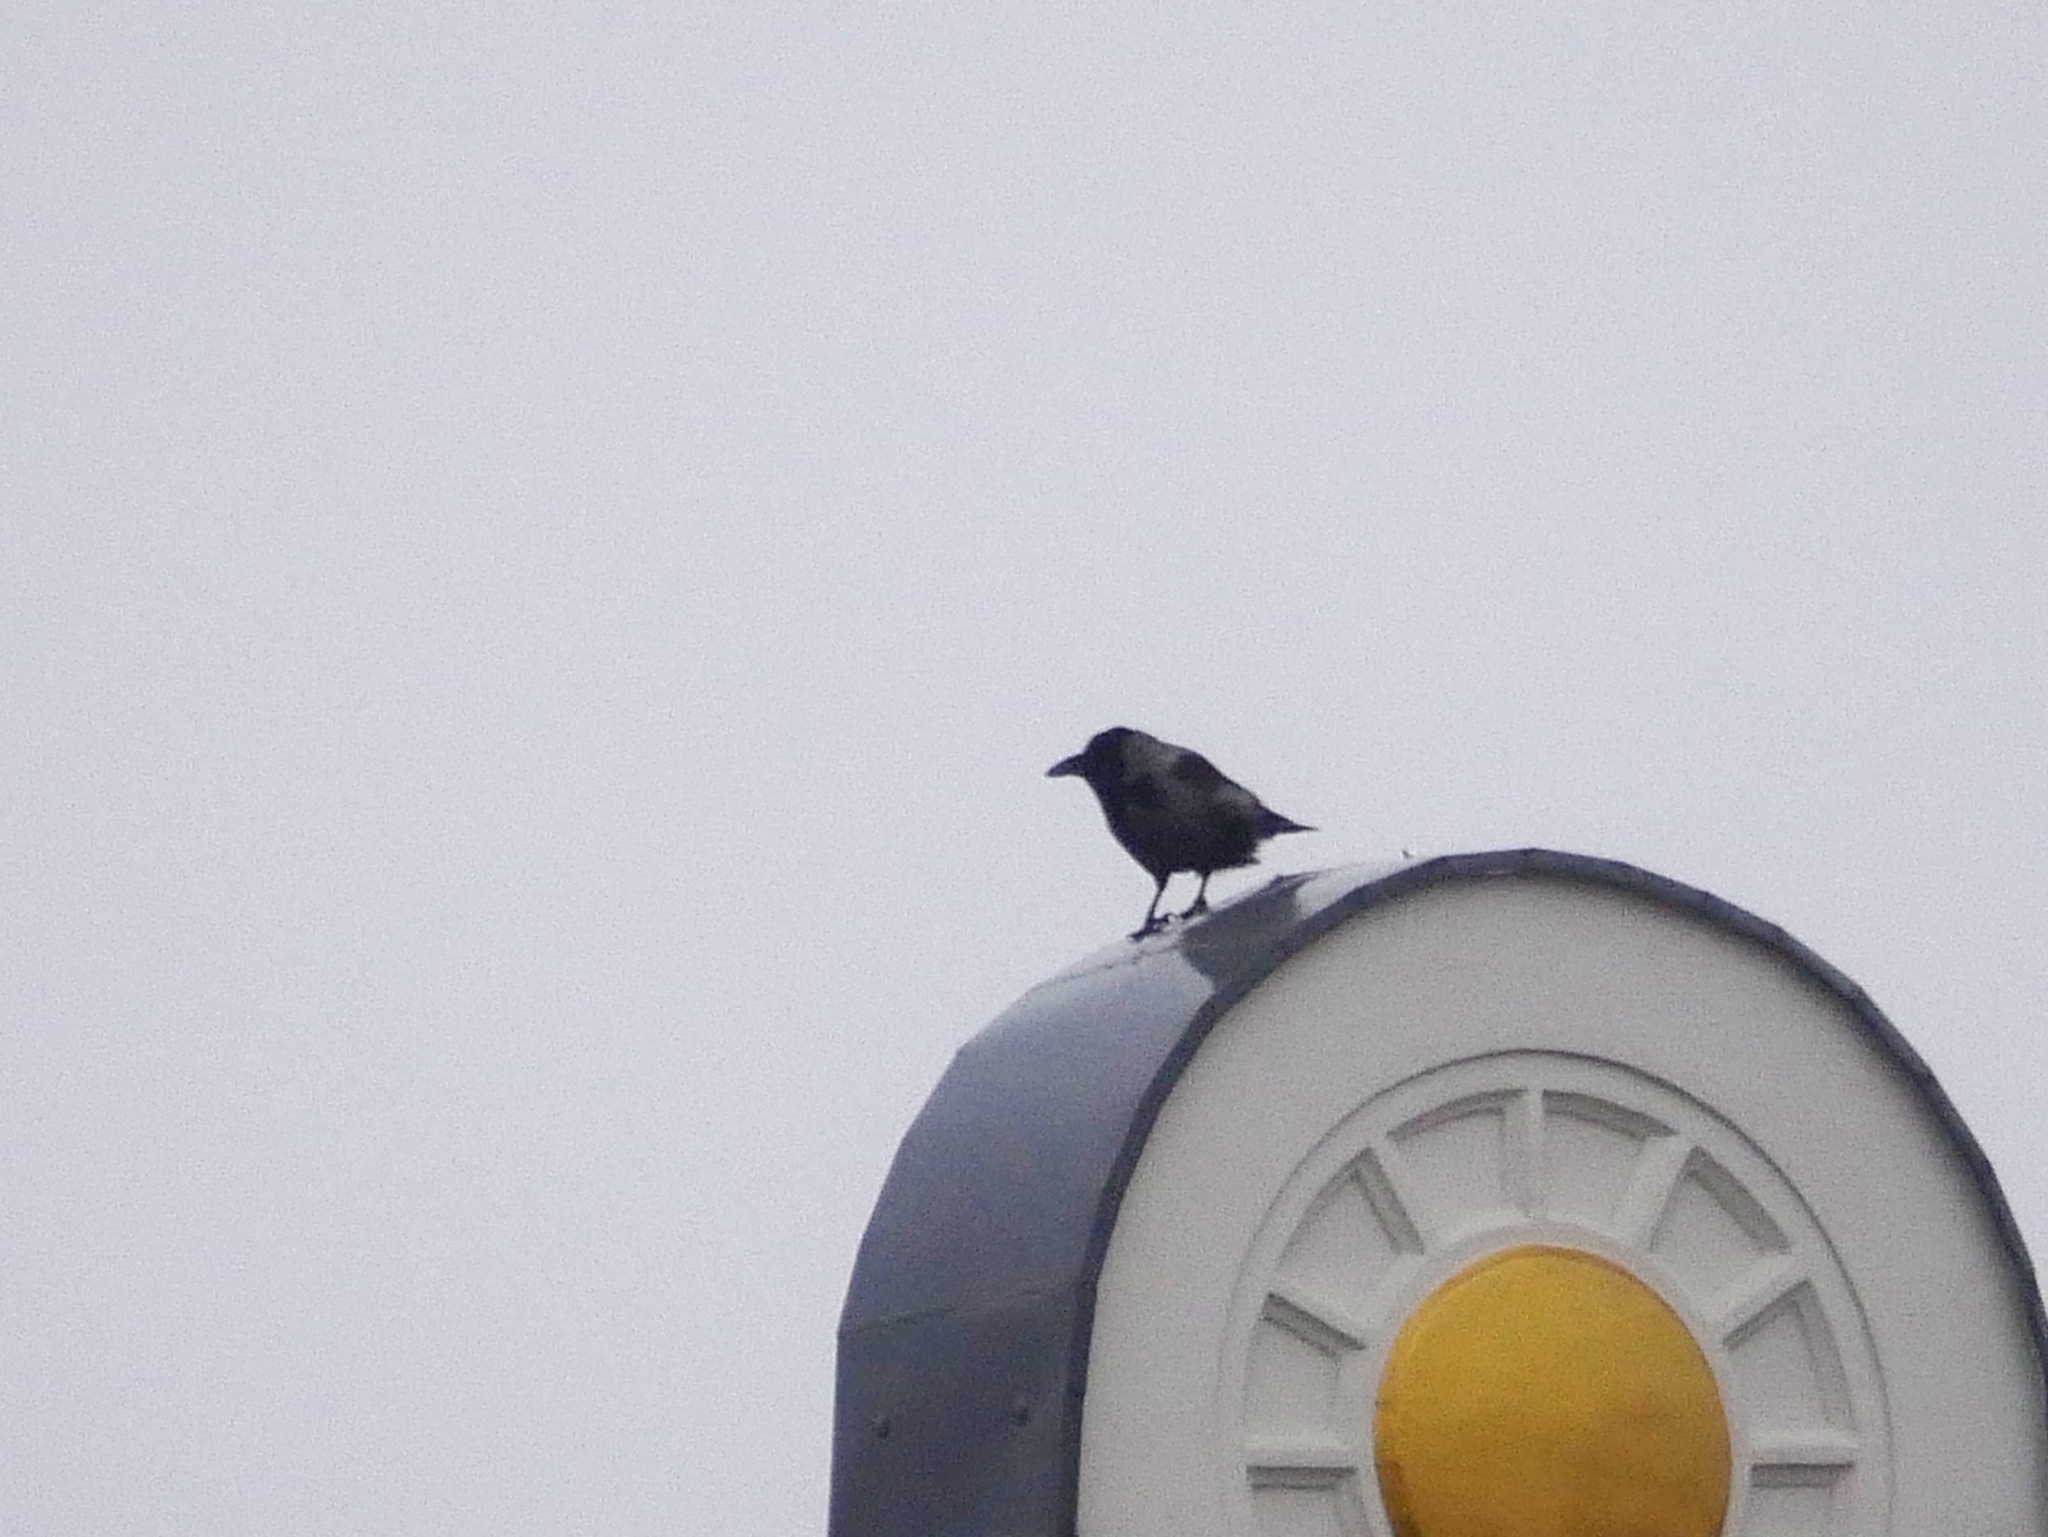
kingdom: Animalia
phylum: Chordata
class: Aves
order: Passeriformes
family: Corvidae
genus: Corvus
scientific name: Corvus cornix
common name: Hooded crow
